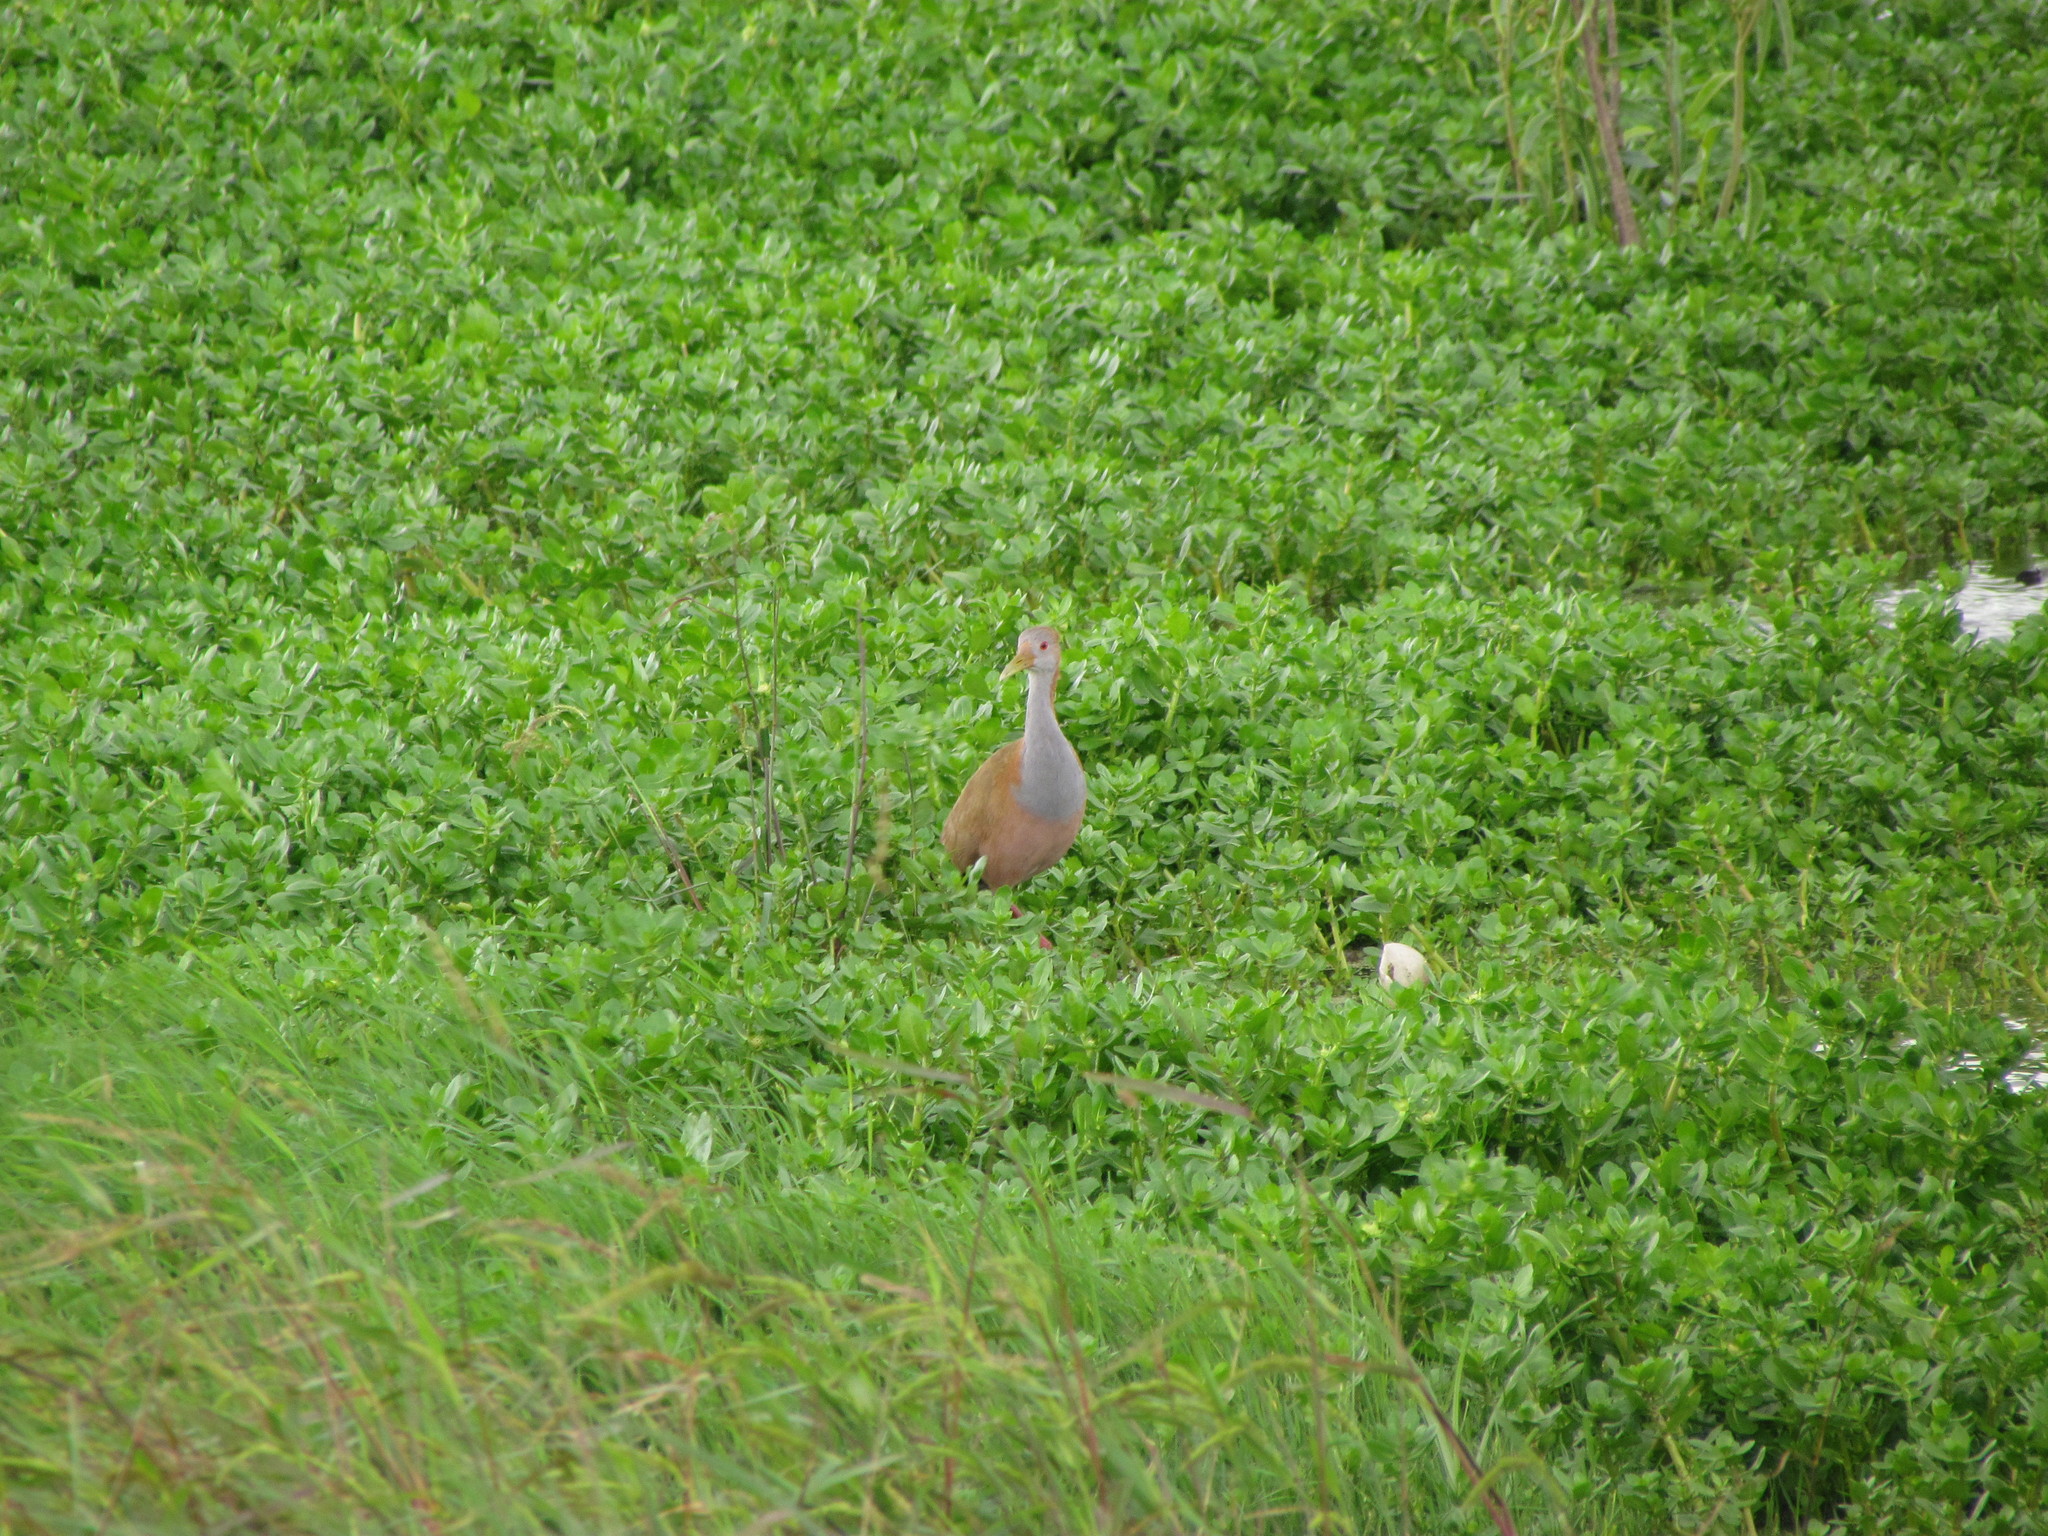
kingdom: Animalia
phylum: Chordata
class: Aves
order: Gruiformes
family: Rallidae
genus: Aramides
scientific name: Aramides ypecaha
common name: Giant wood rail
